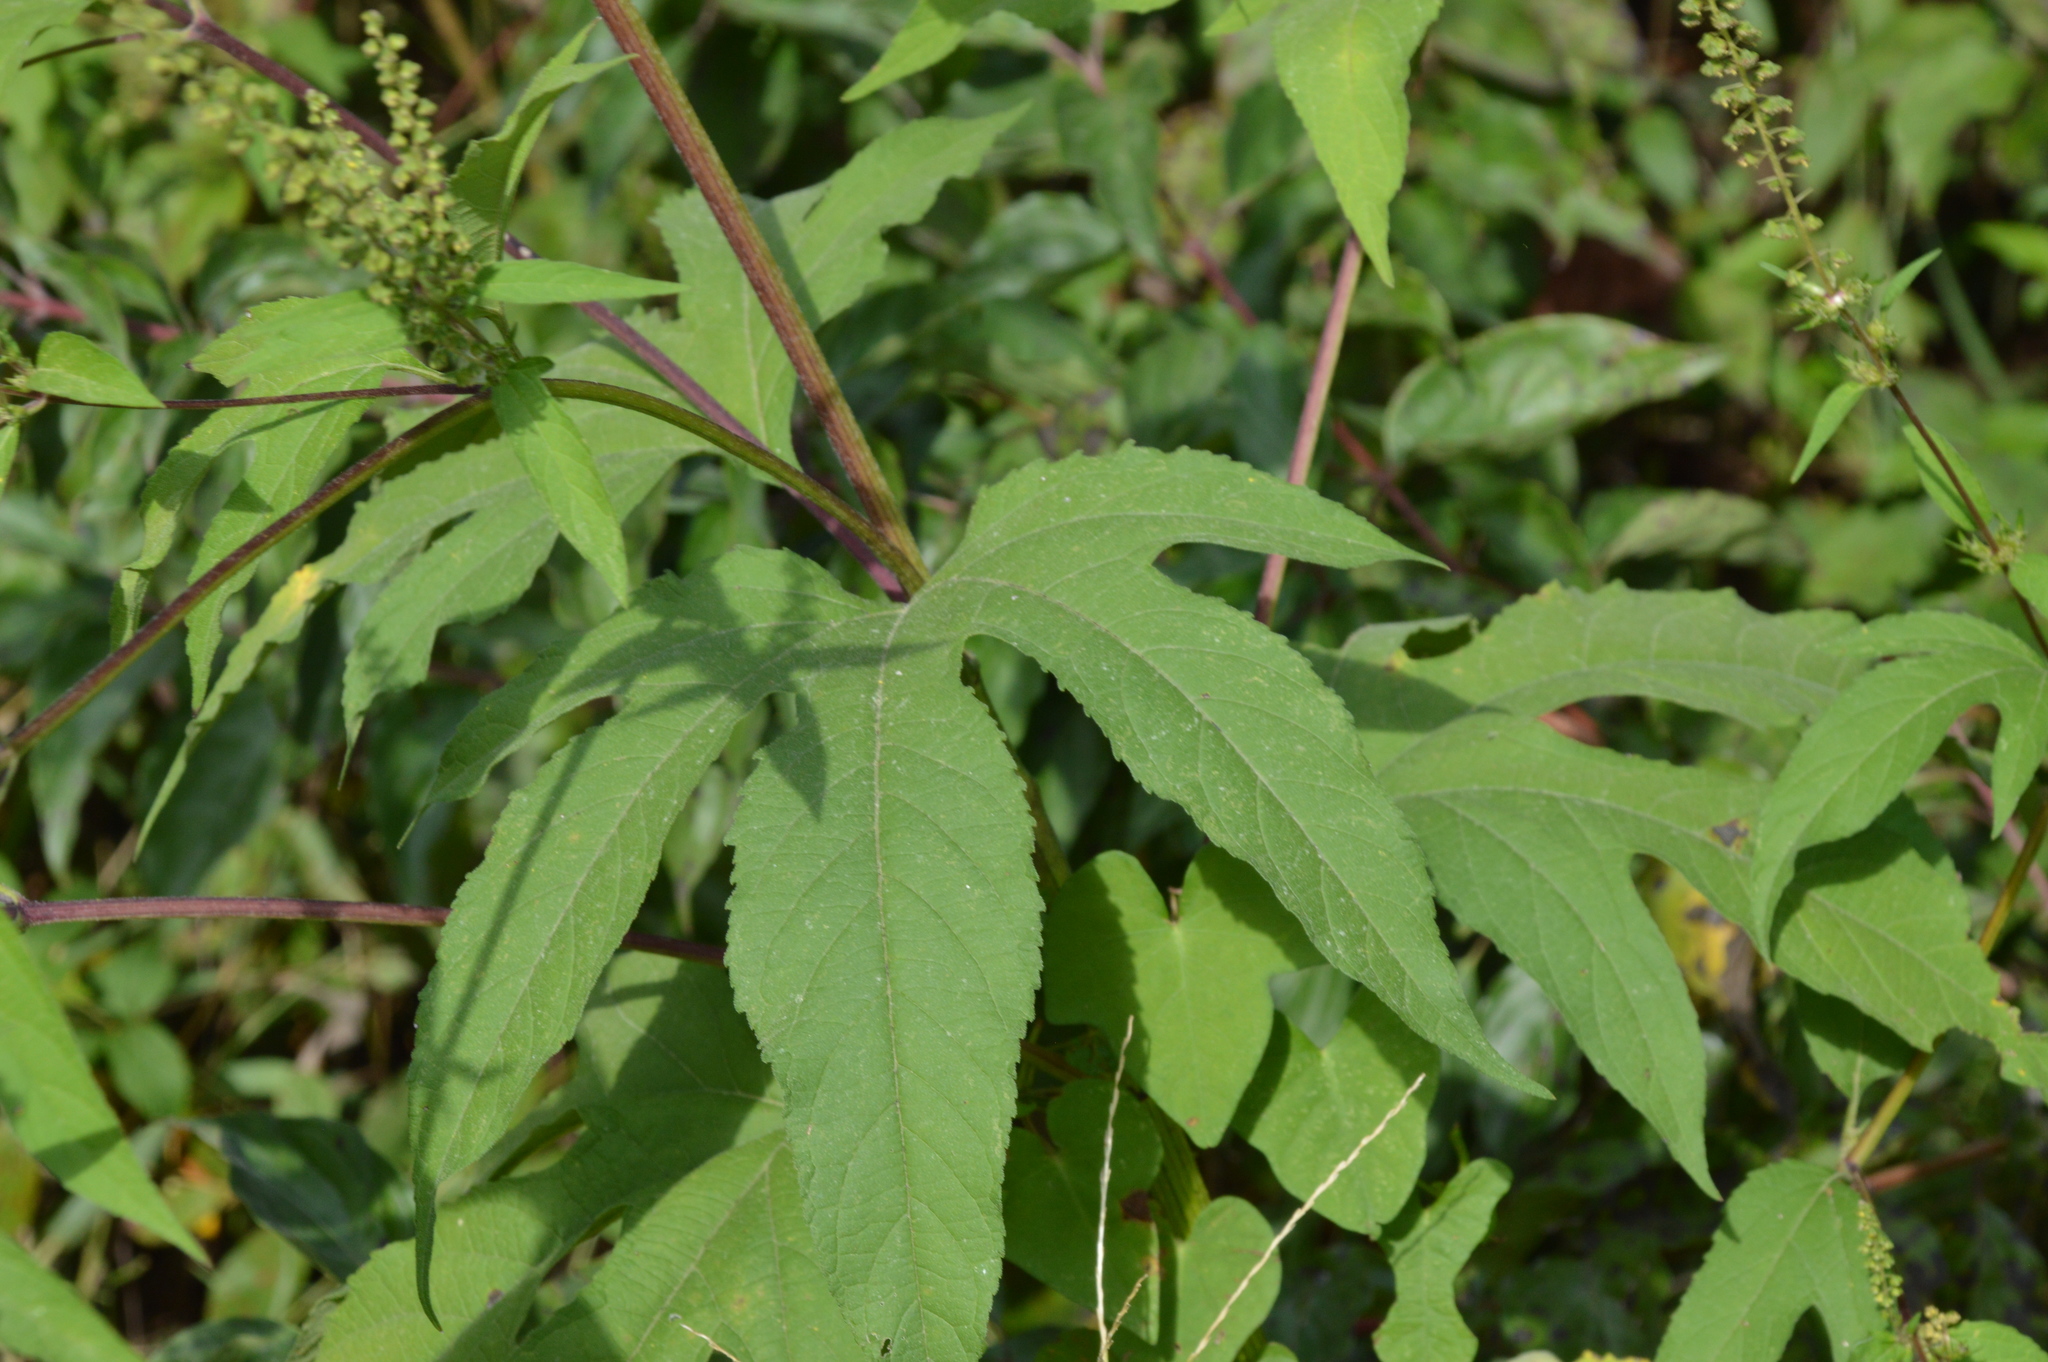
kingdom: Plantae
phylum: Tracheophyta
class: Magnoliopsida
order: Asterales
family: Asteraceae
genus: Ambrosia
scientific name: Ambrosia trifida
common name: Giant ragweed
